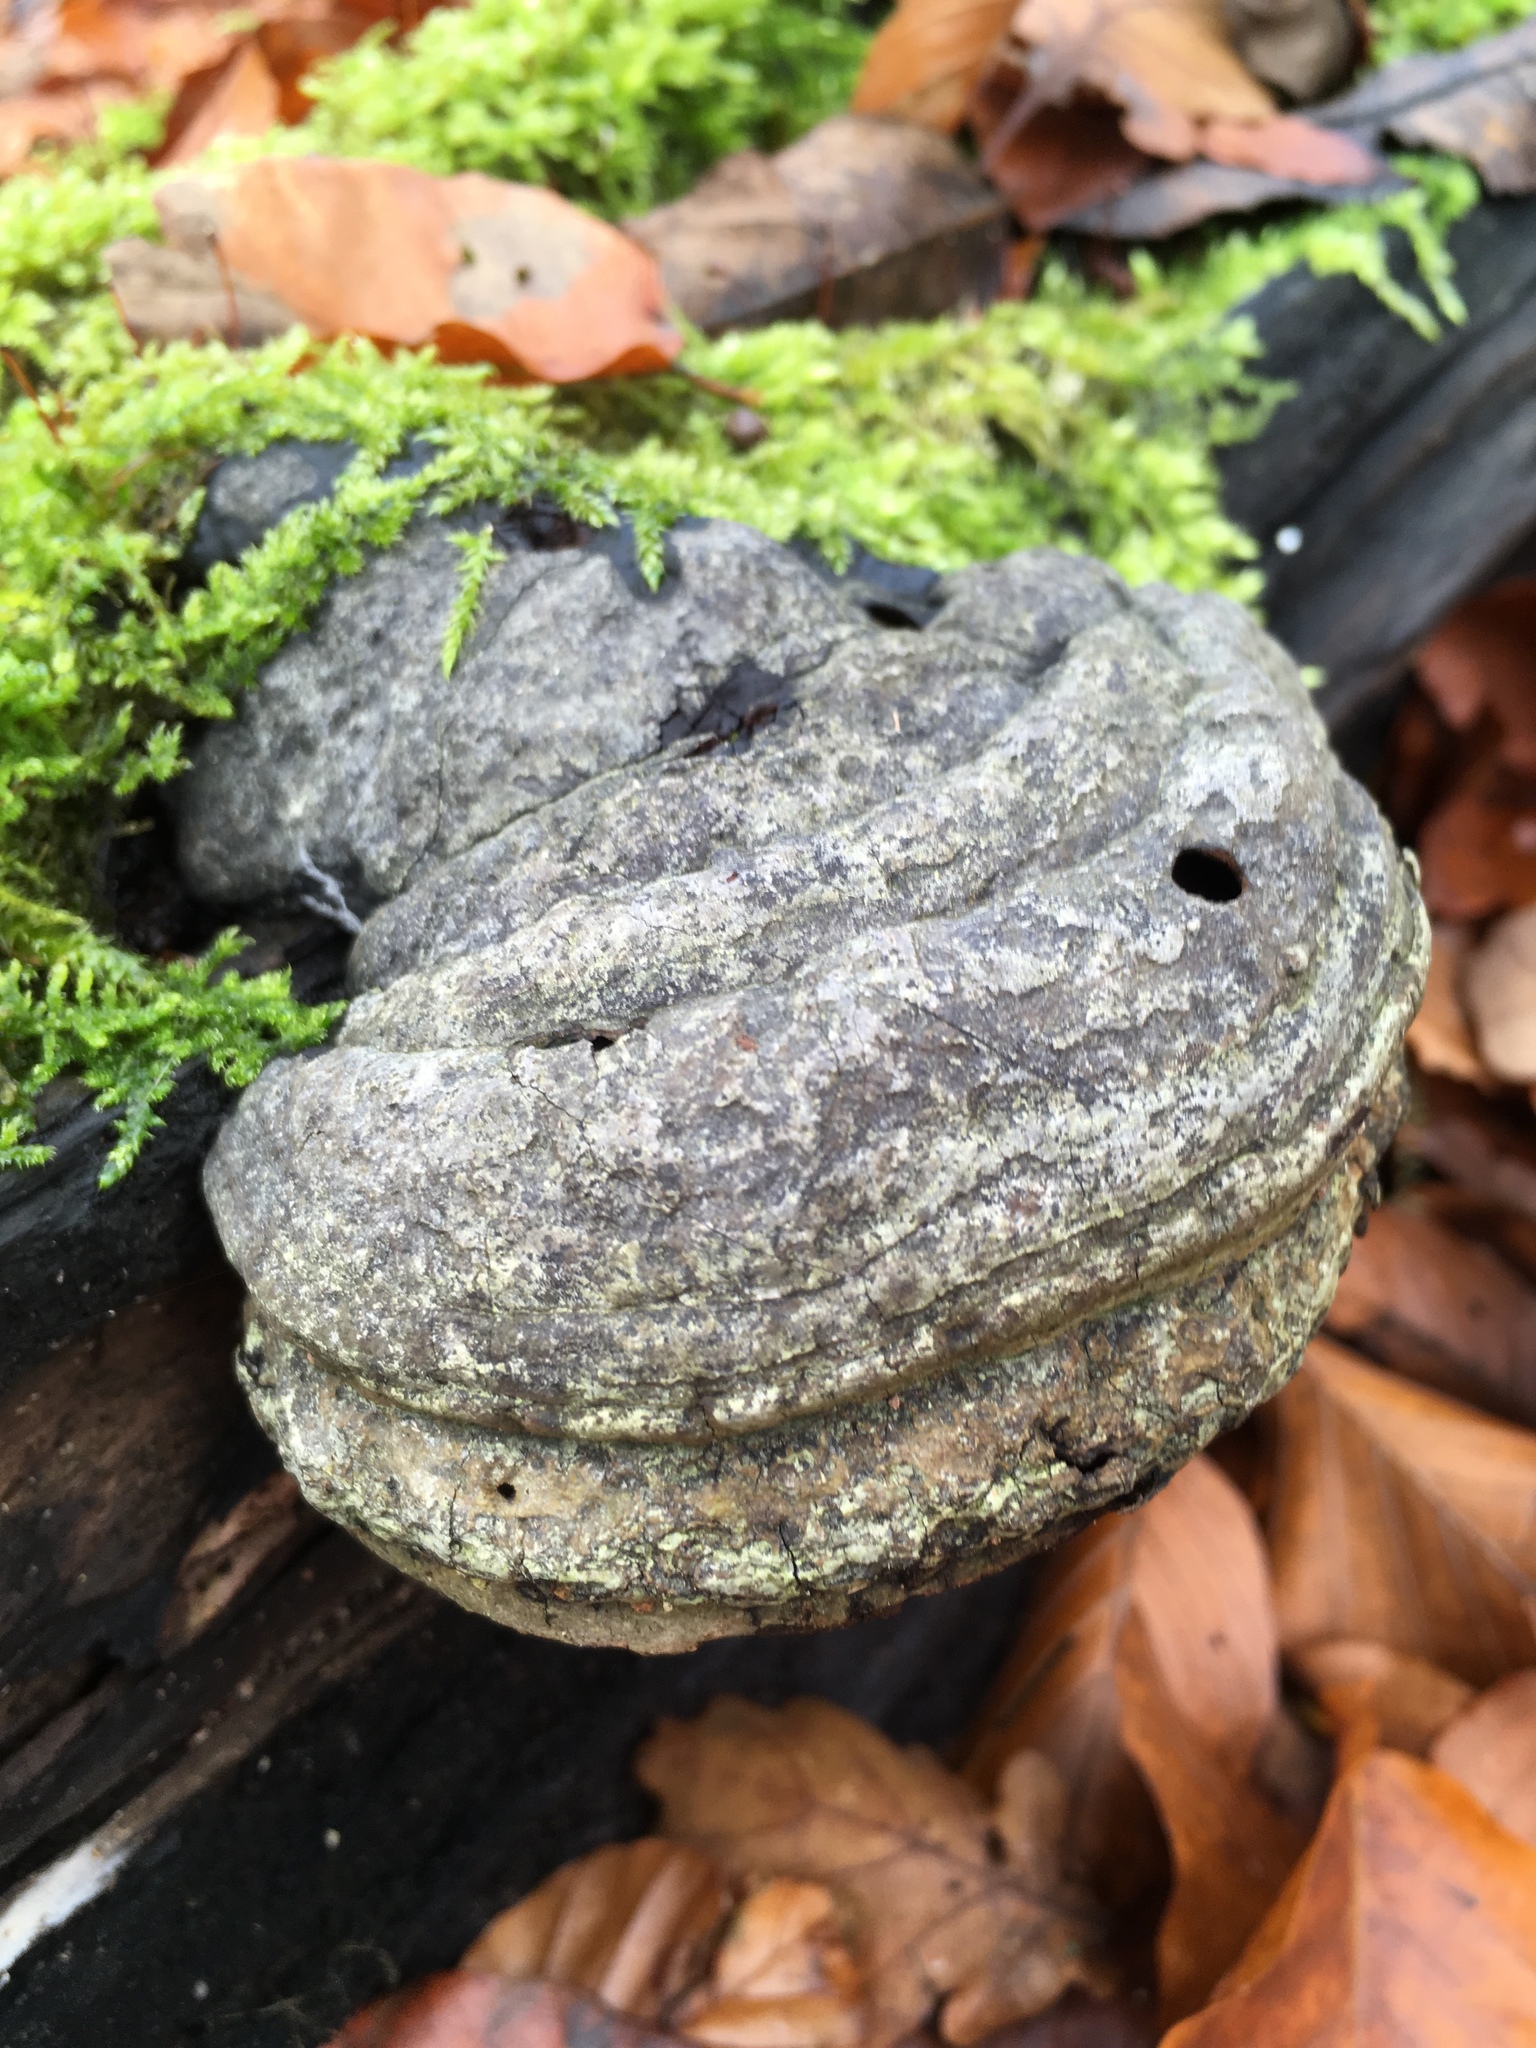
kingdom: Fungi
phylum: Basidiomycota
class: Agaricomycetes
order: Polyporales
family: Polyporaceae
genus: Fomes
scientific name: Fomes fomentarius
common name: Hoof fungus
